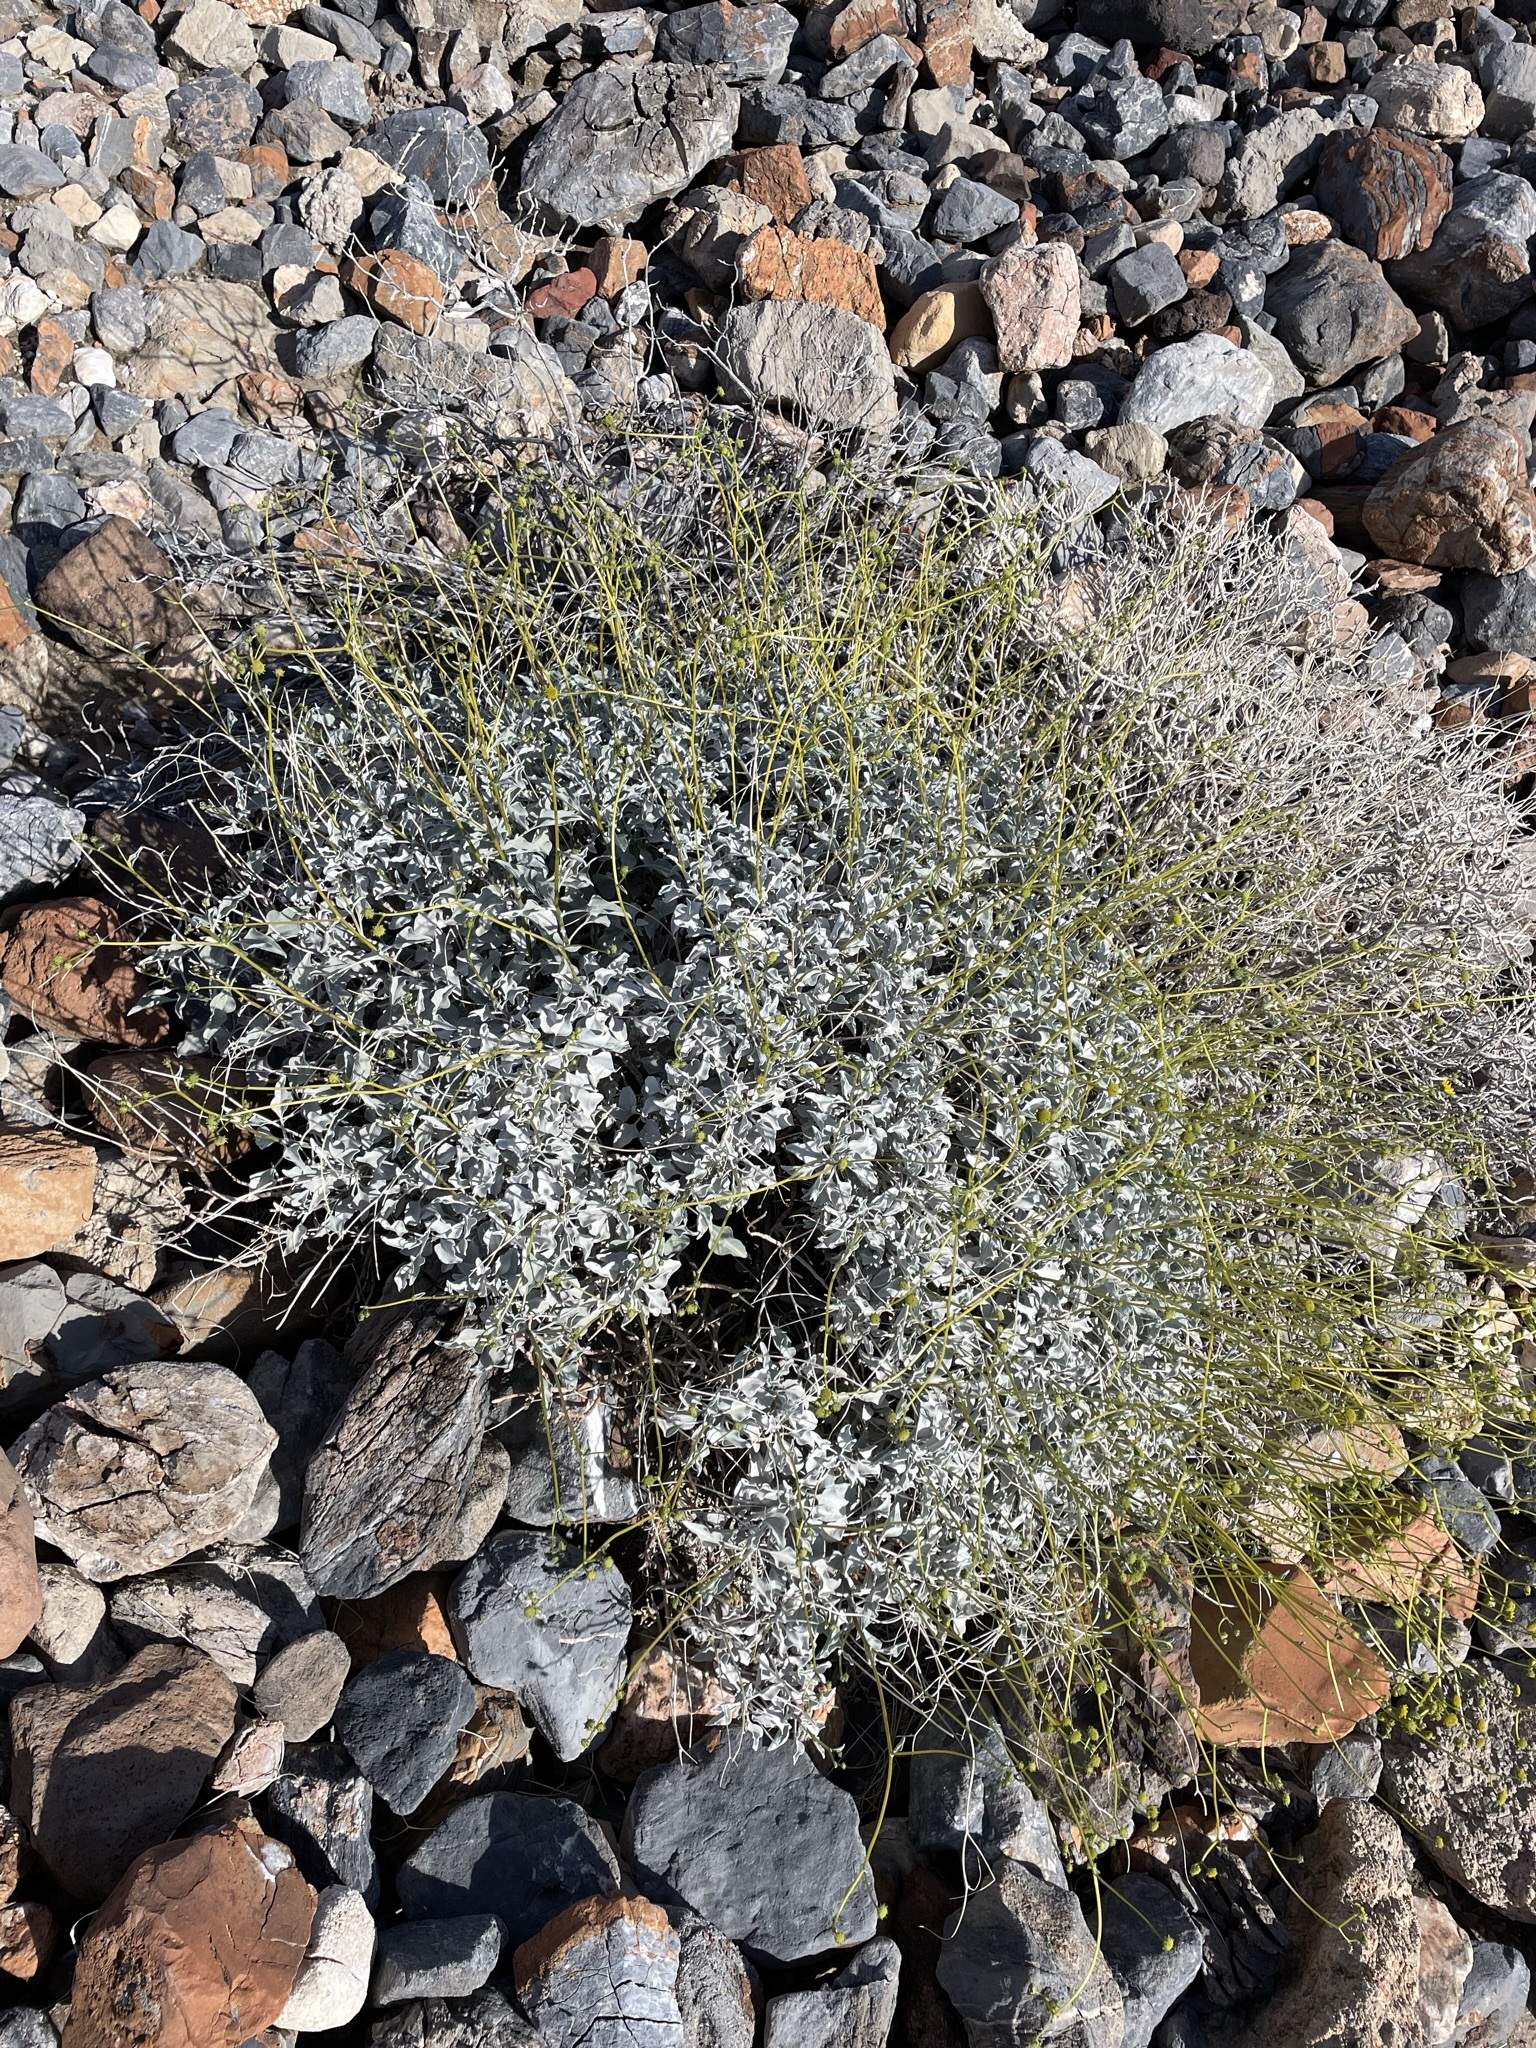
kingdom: Plantae
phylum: Tracheophyta
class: Magnoliopsida
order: Asterales
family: Asteraceae
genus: Encelia
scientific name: Encelia farinosa
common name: Brittlebush
